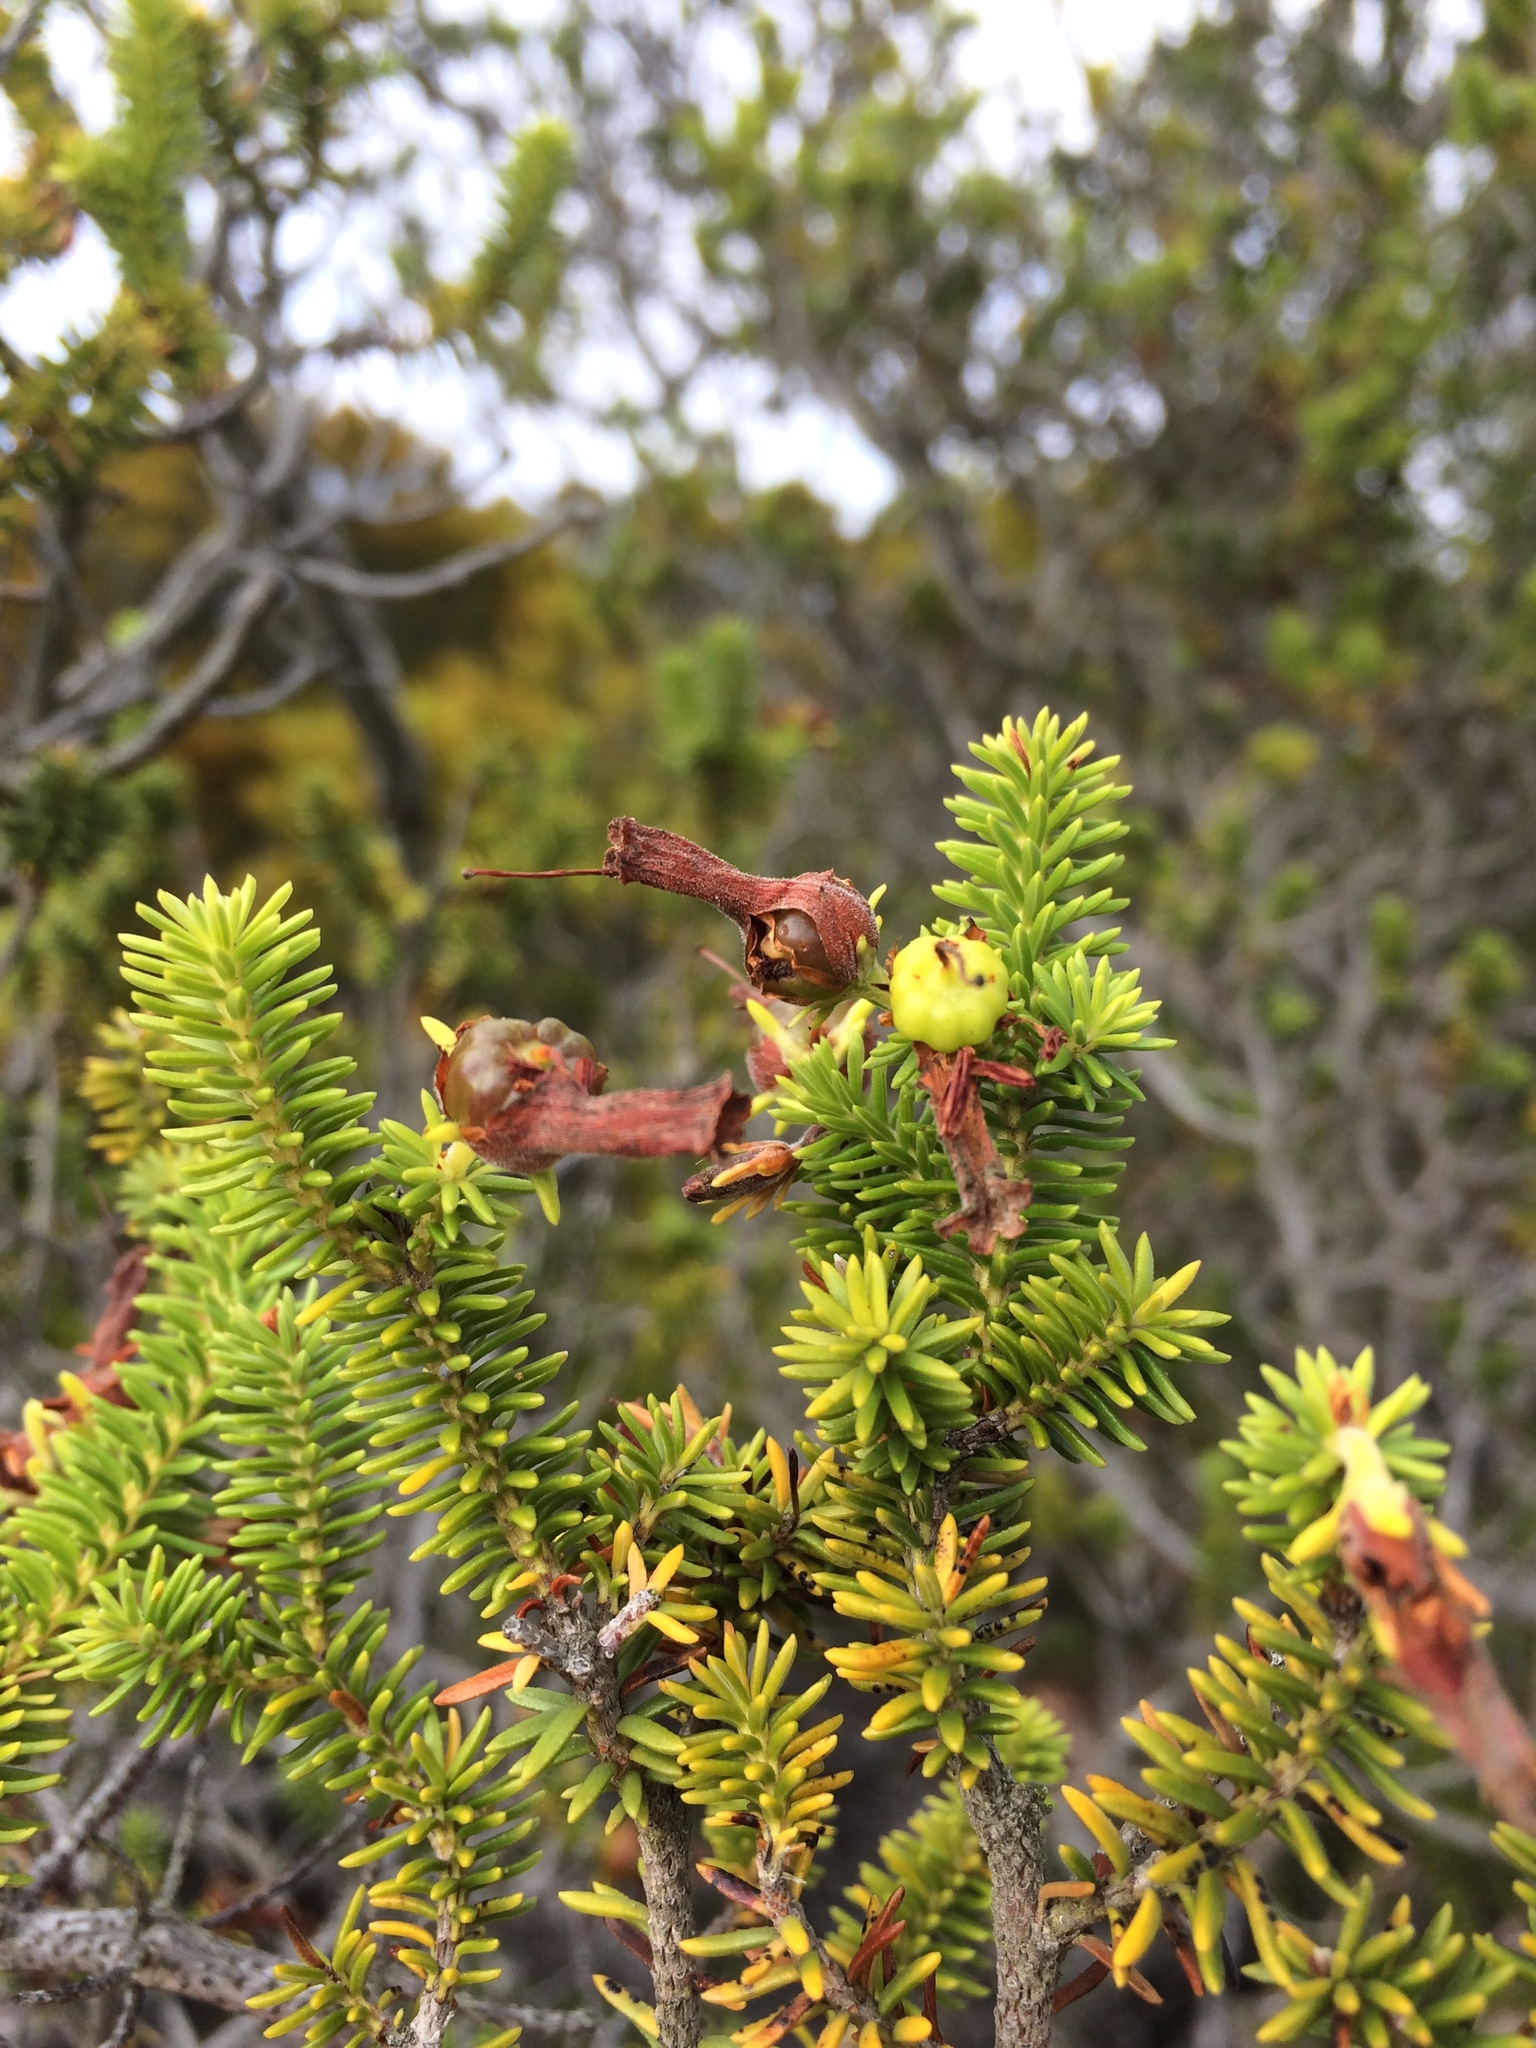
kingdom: Plantae
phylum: Tracheophyta
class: Magnoliopsida
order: Ericales
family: Ericaceae
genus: Erica
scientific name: Erica brachialis
